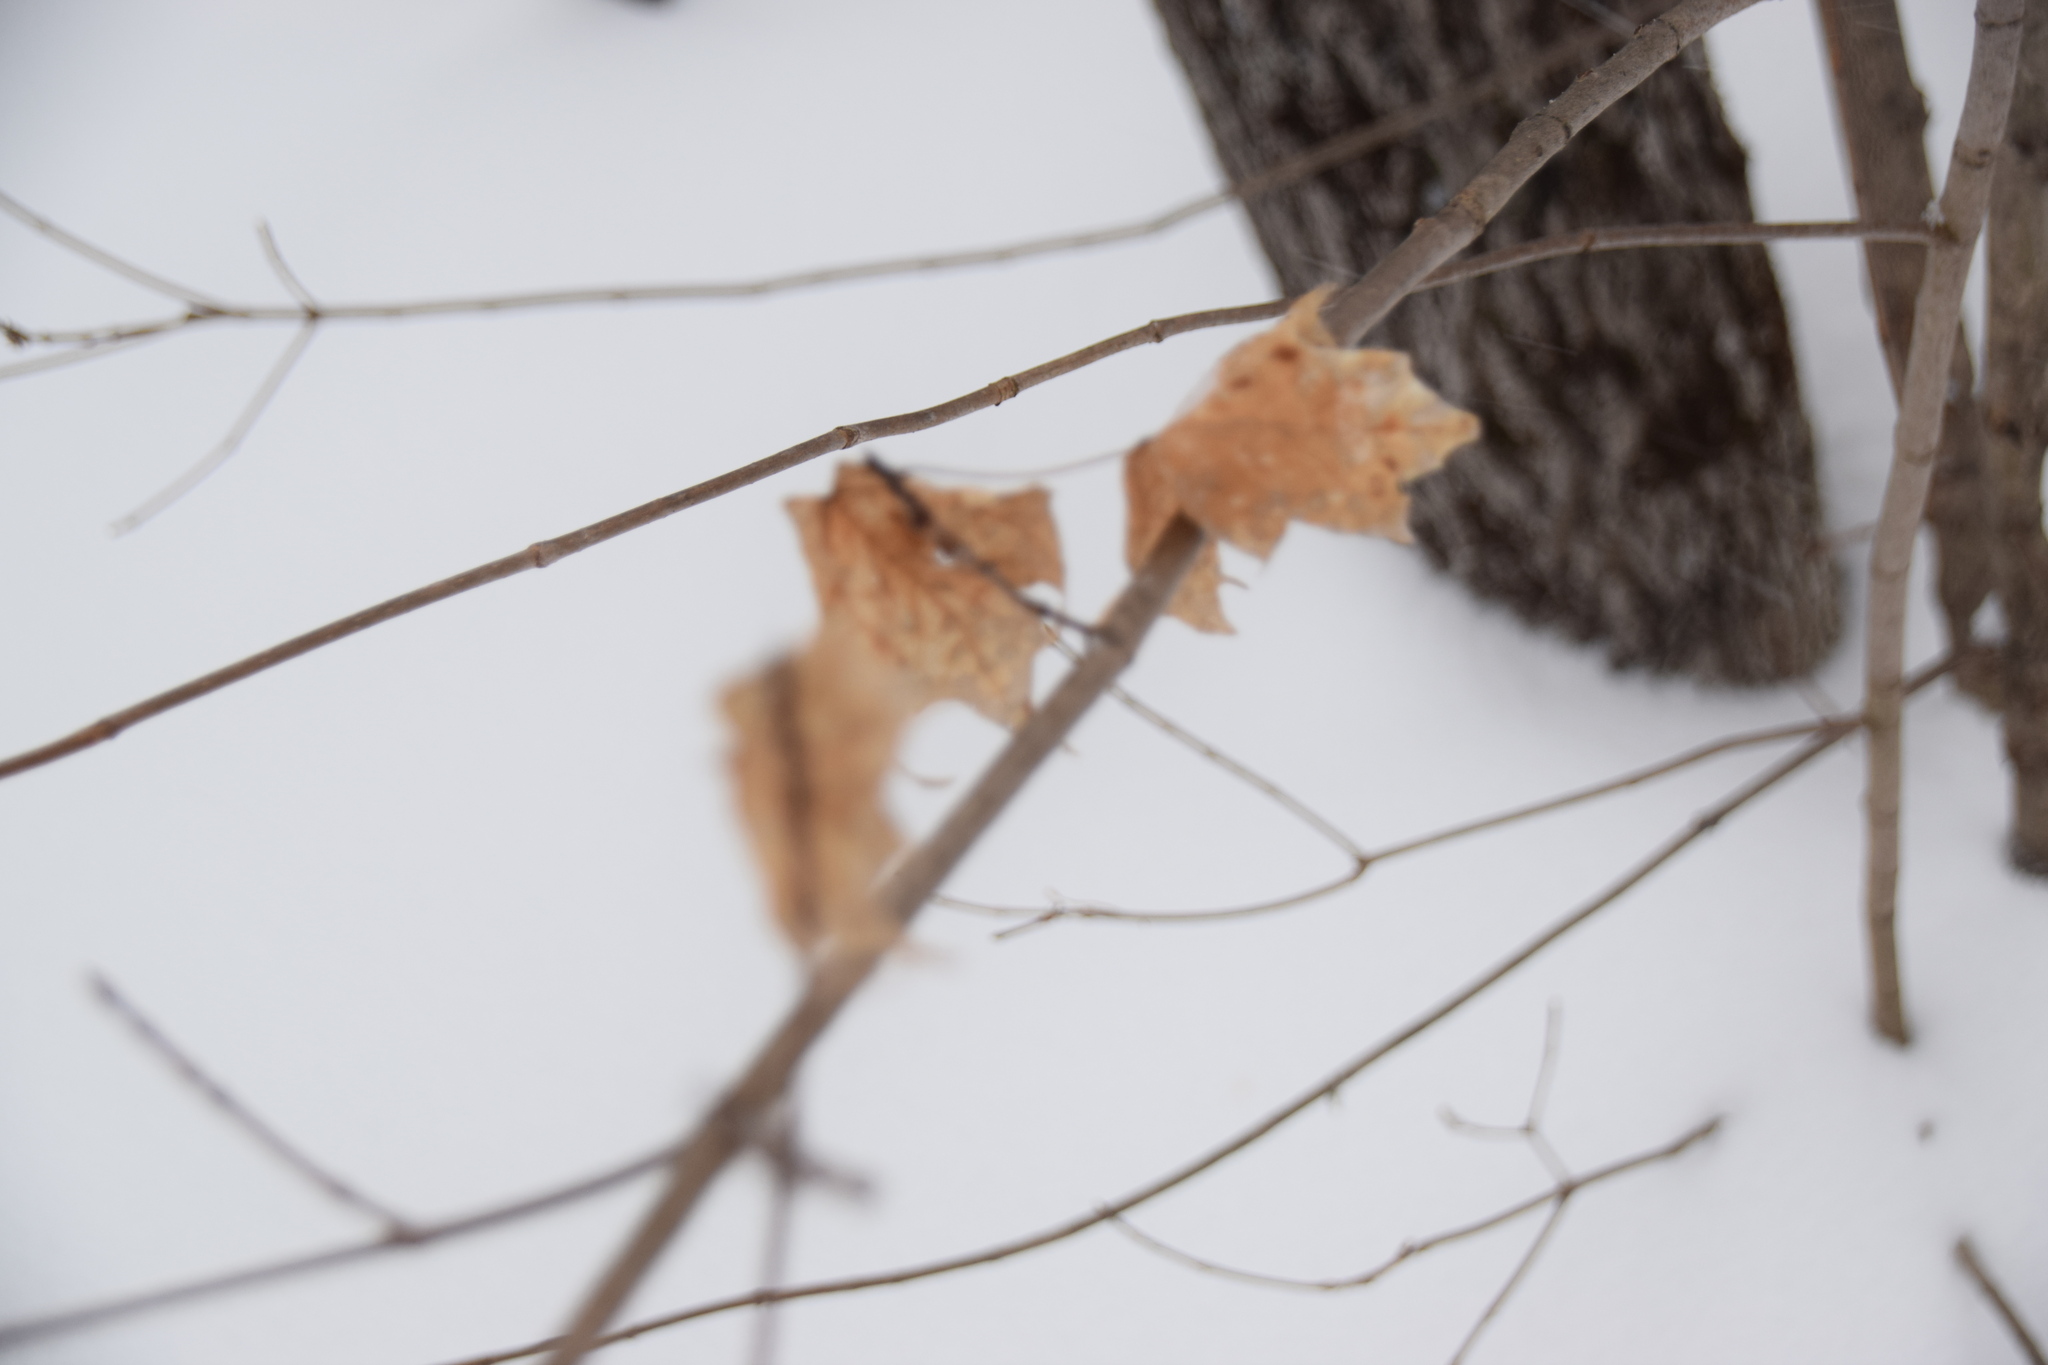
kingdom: Plantae
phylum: Tracheophyta
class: Magnoliopsida
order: Sapindales
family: Sapindaceae
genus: Acer
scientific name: Acer saccharum
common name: Sugar maple
